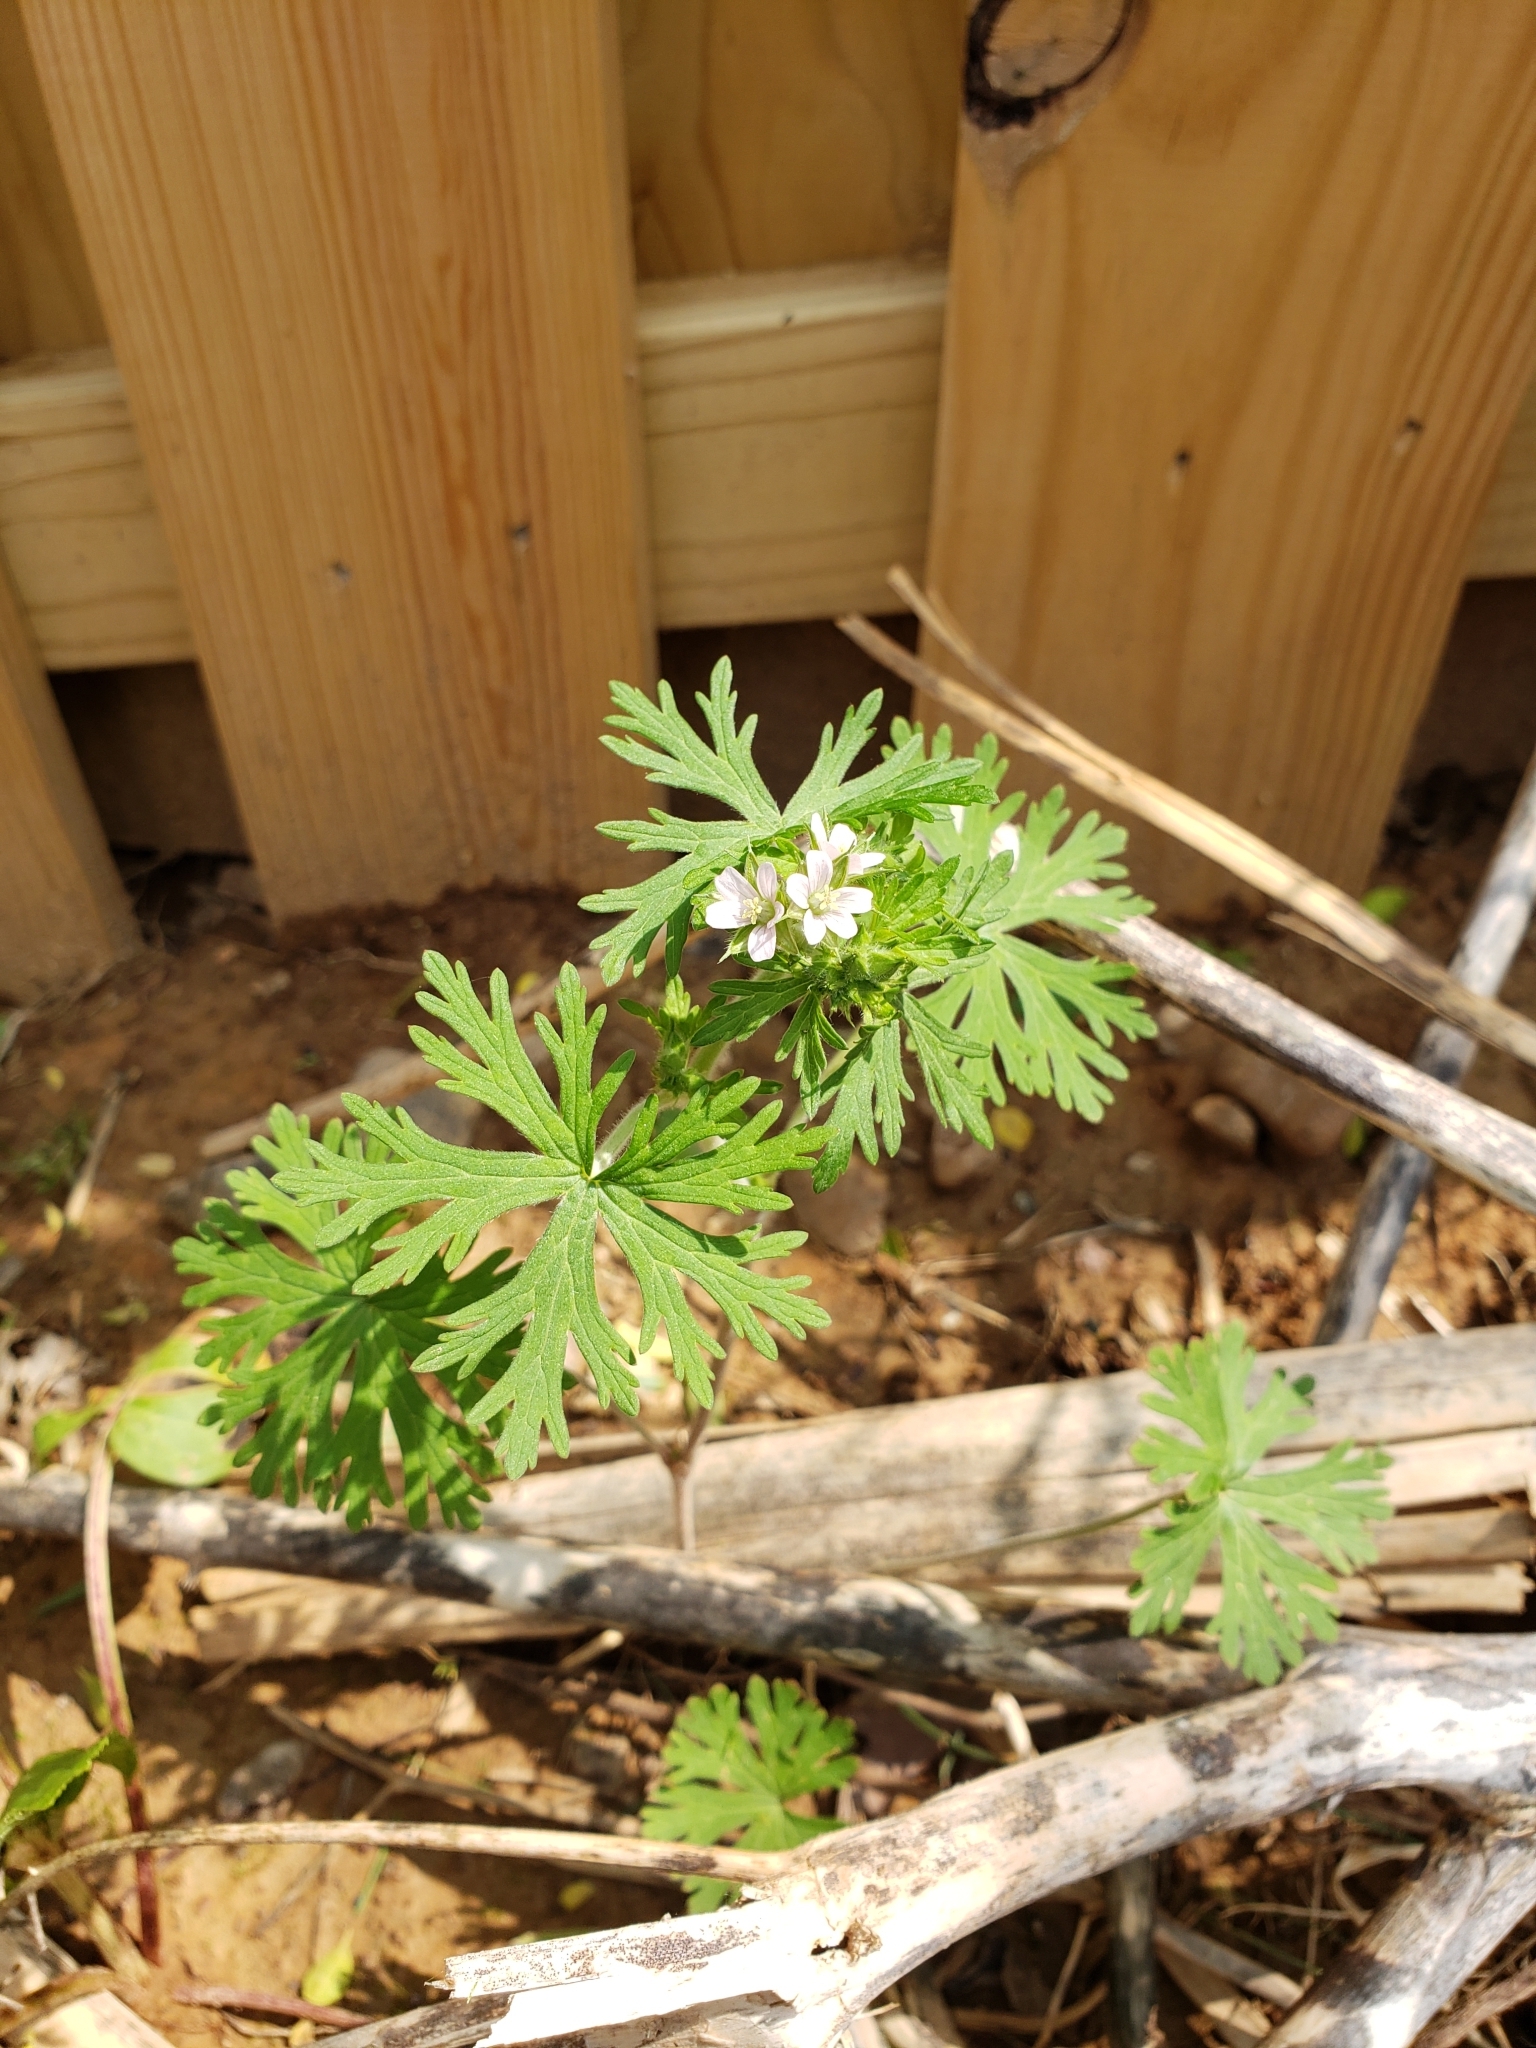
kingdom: Plantae
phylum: Tracheophyta
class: Magnoliopsida
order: Geraniales
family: Geraniaceae
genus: Geranium
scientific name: Geranium carolinianum
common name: Carolina crane's-bill
